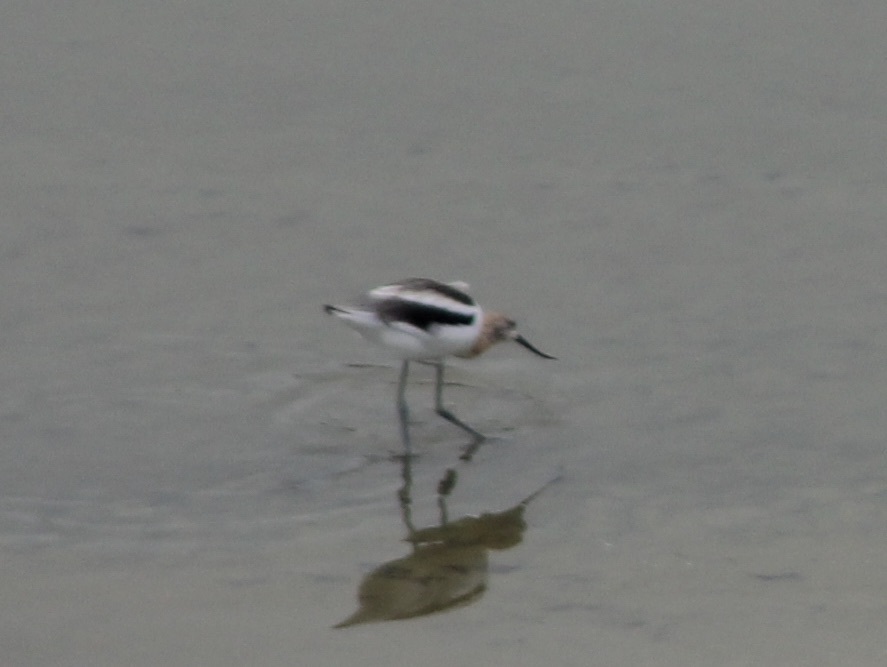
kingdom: Animalia
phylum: Chordata
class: Aves
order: Charadriiformes
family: Recurvirostridae
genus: Recurvirostra
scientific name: Recurvirostra americana
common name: American avocet
